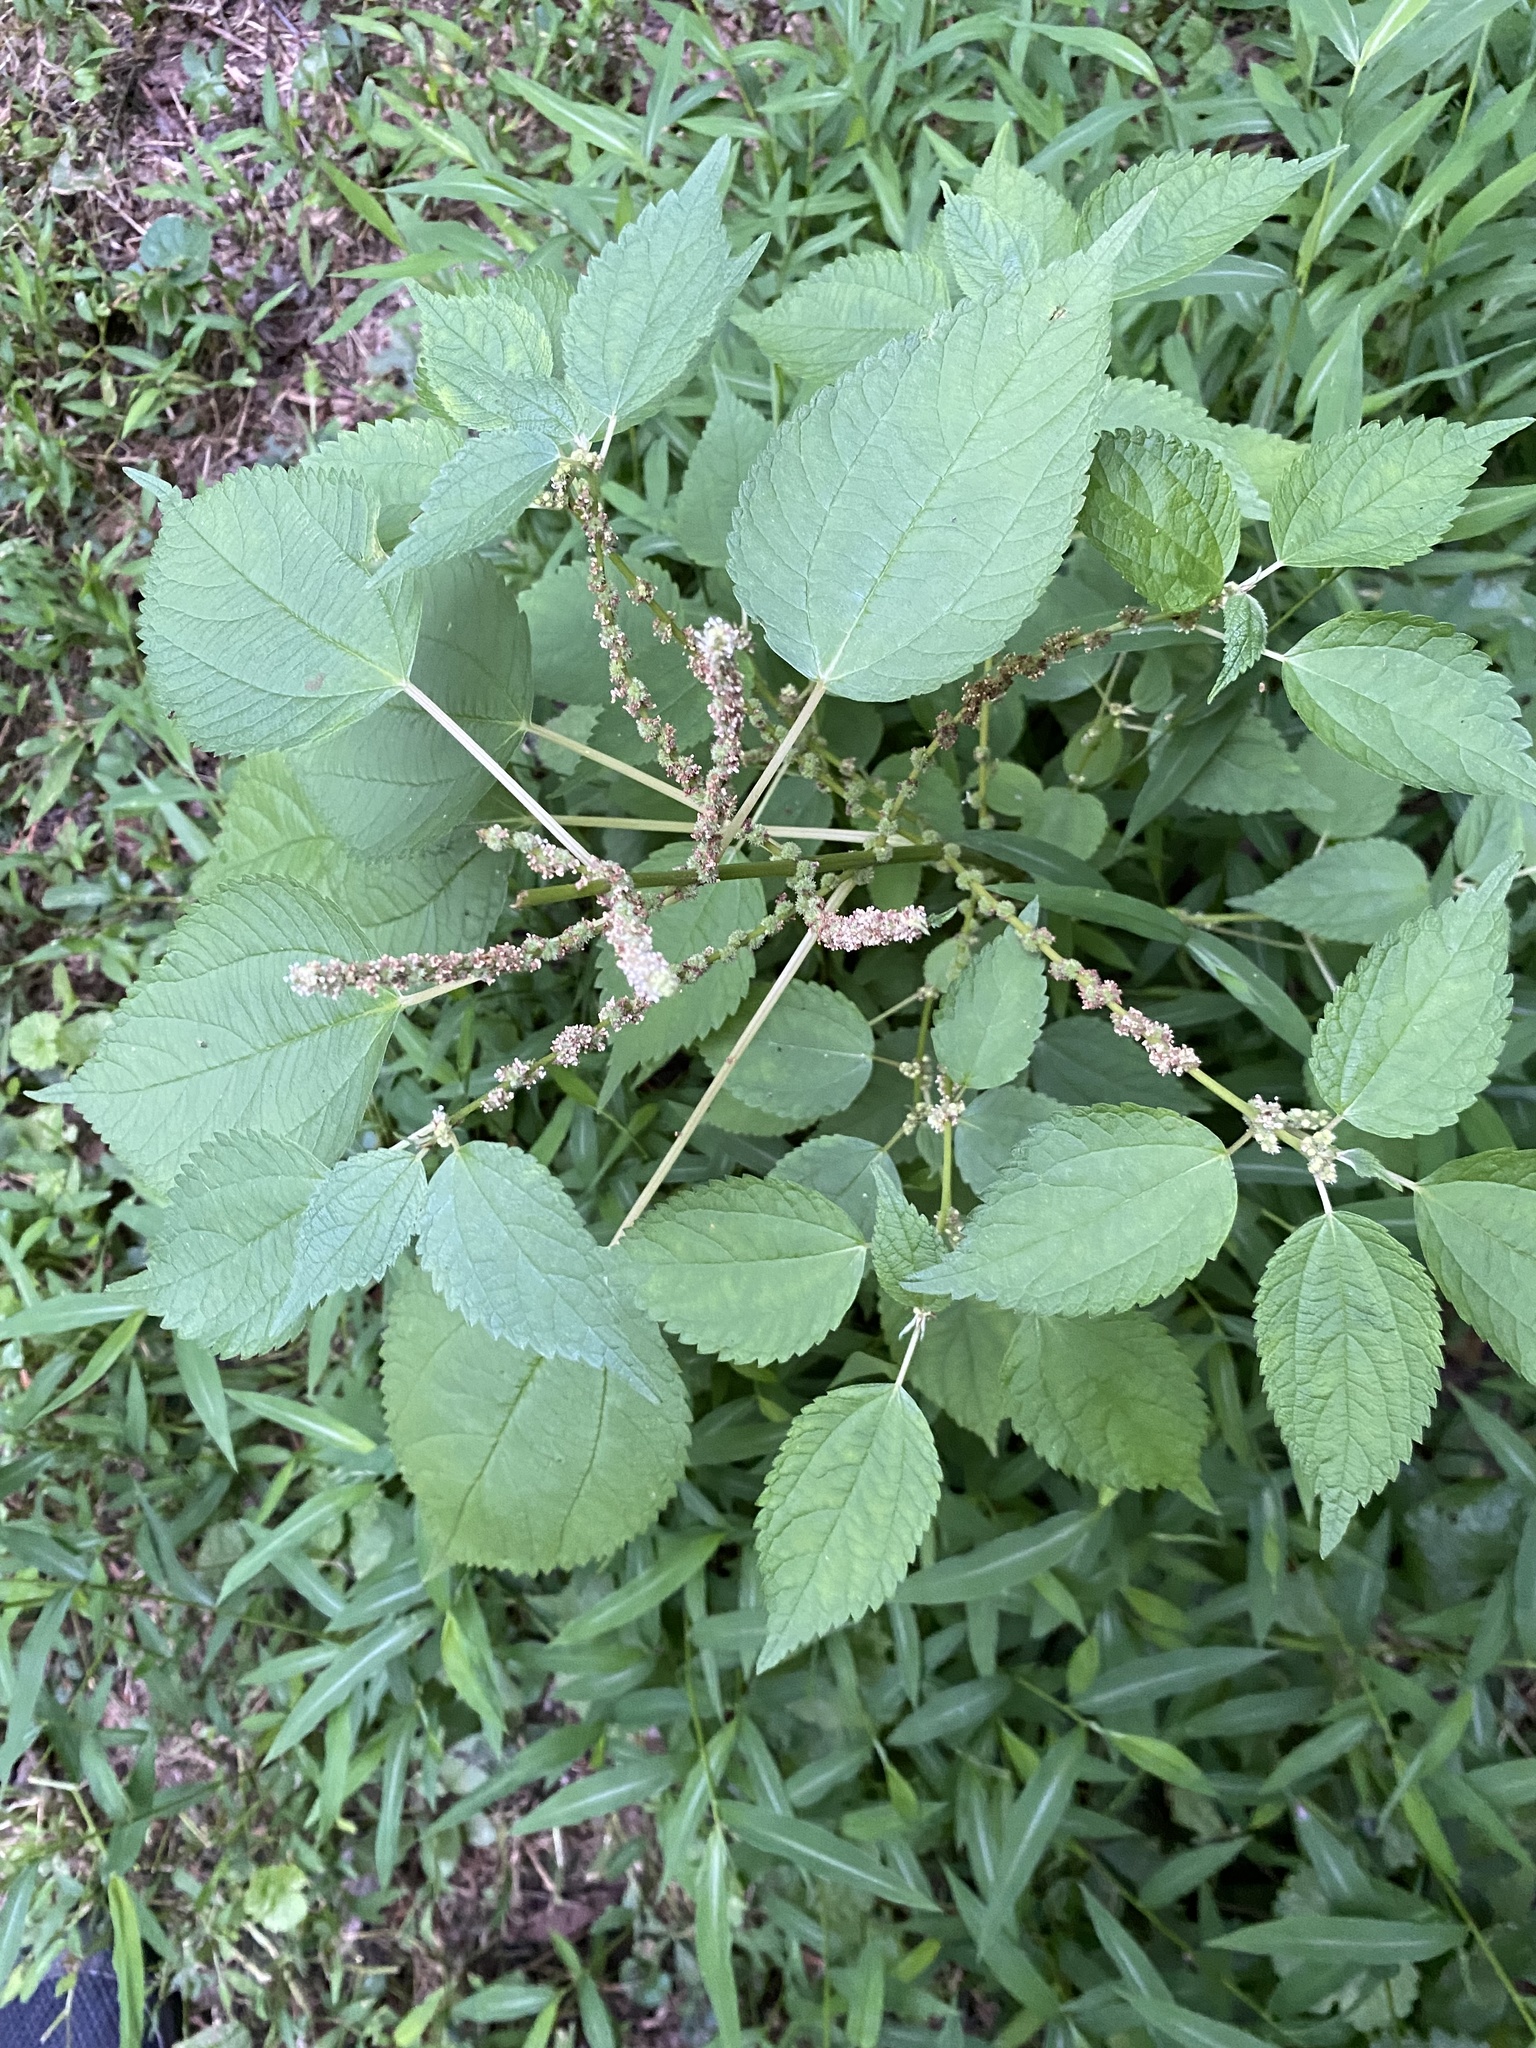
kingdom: Plantae
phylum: Tracheophyta
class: Magnoliopsida
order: Rosales
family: Urticaceae
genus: Boehmeria
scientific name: Boehmeria cylindrica
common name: Bog-hemp
